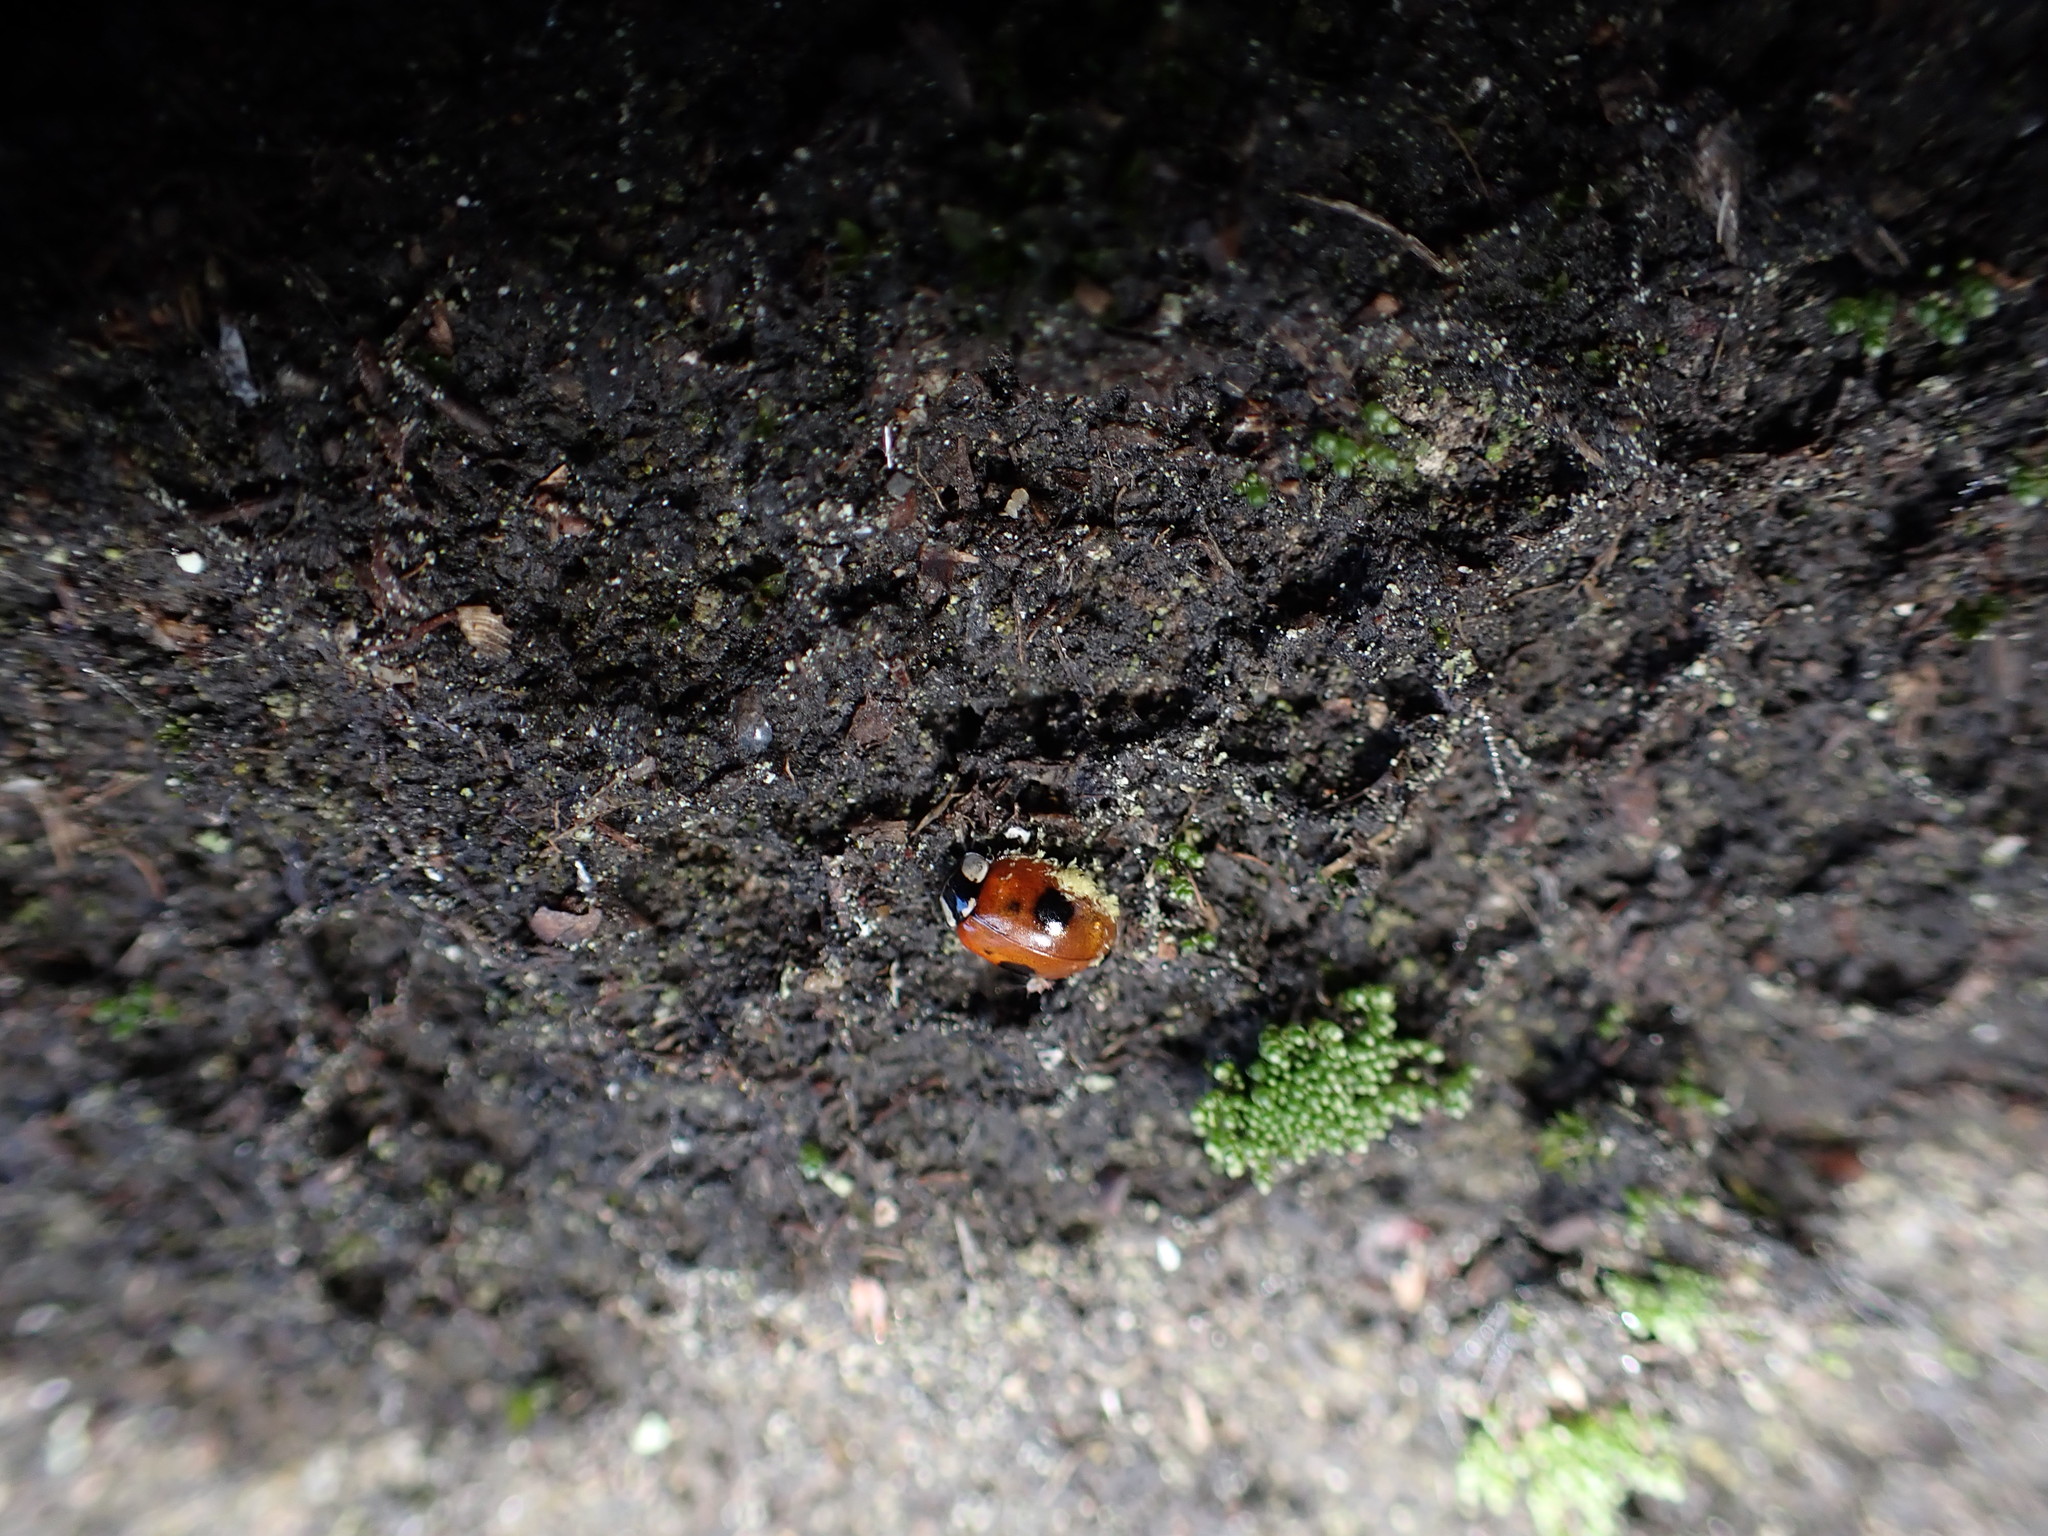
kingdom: Animalia
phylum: Arthropoda
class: Insecta
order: Coleoptera
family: Coccinellidae
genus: Adalia
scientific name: Adalia bipunctata
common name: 2-spot ladybird
